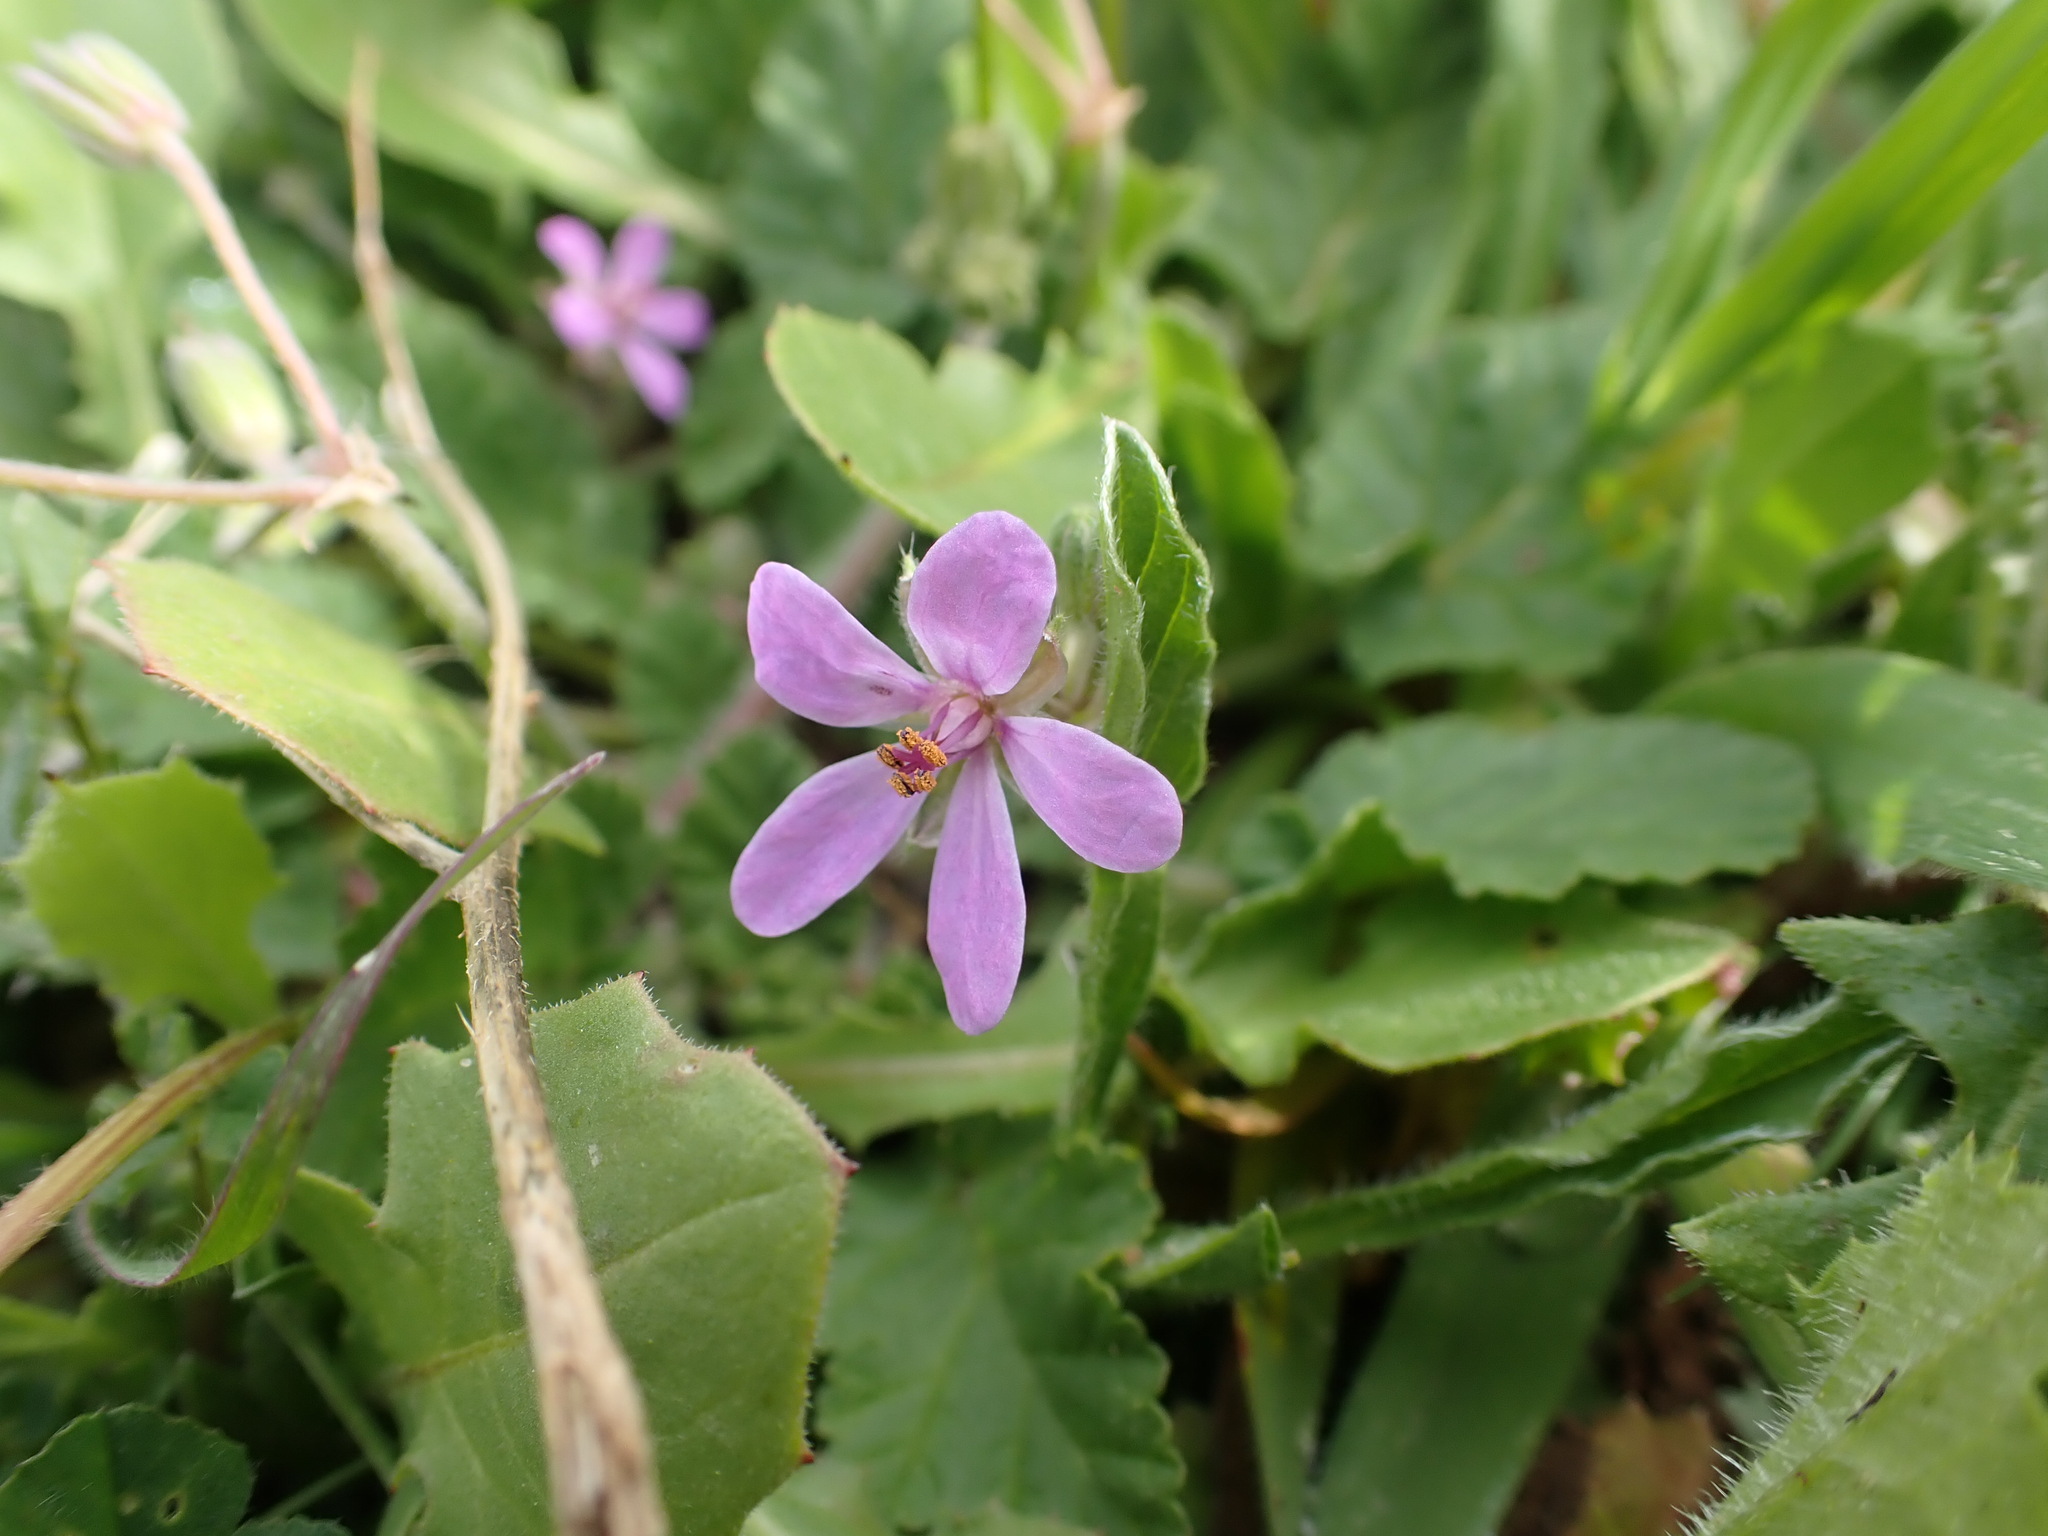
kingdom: Plantae
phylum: Tracheophyta
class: Magnoliopsida
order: Geraniales
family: Geraniaceae
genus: Erodium
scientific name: Erodium malacoides
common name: Soft stork's-bill
